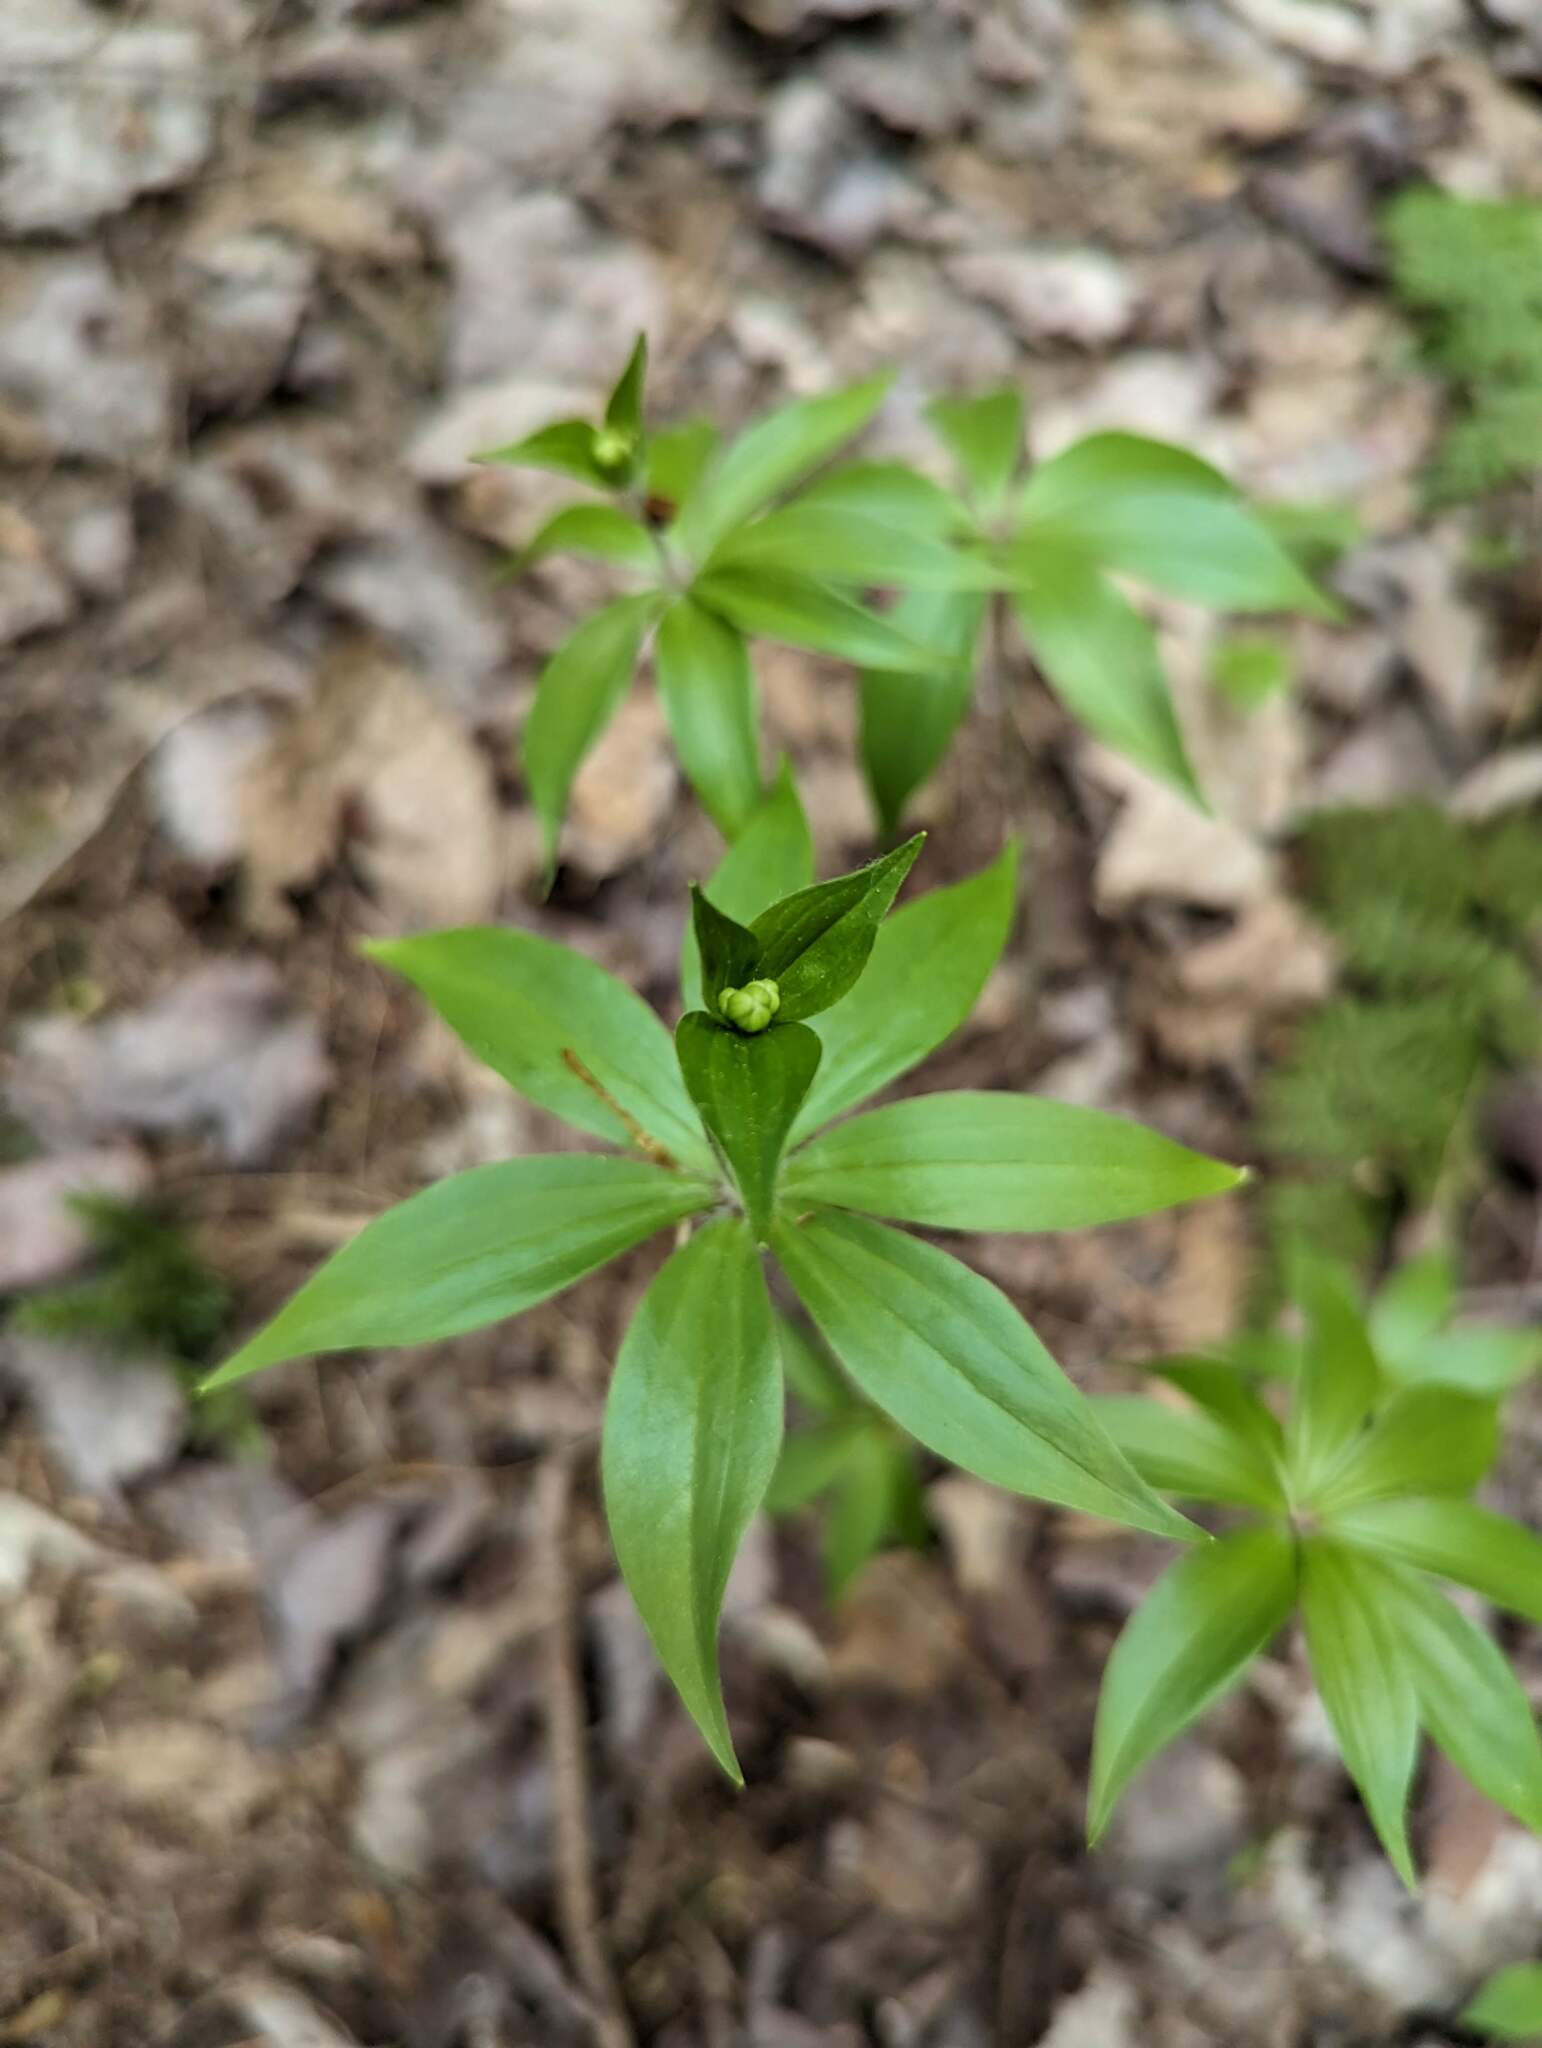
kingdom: Plantae
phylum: Tracheophyta
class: Liliopsida
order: Liliales
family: Liliaceae
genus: Medeola
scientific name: Medeola virginiana
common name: Indian cucumber-root
